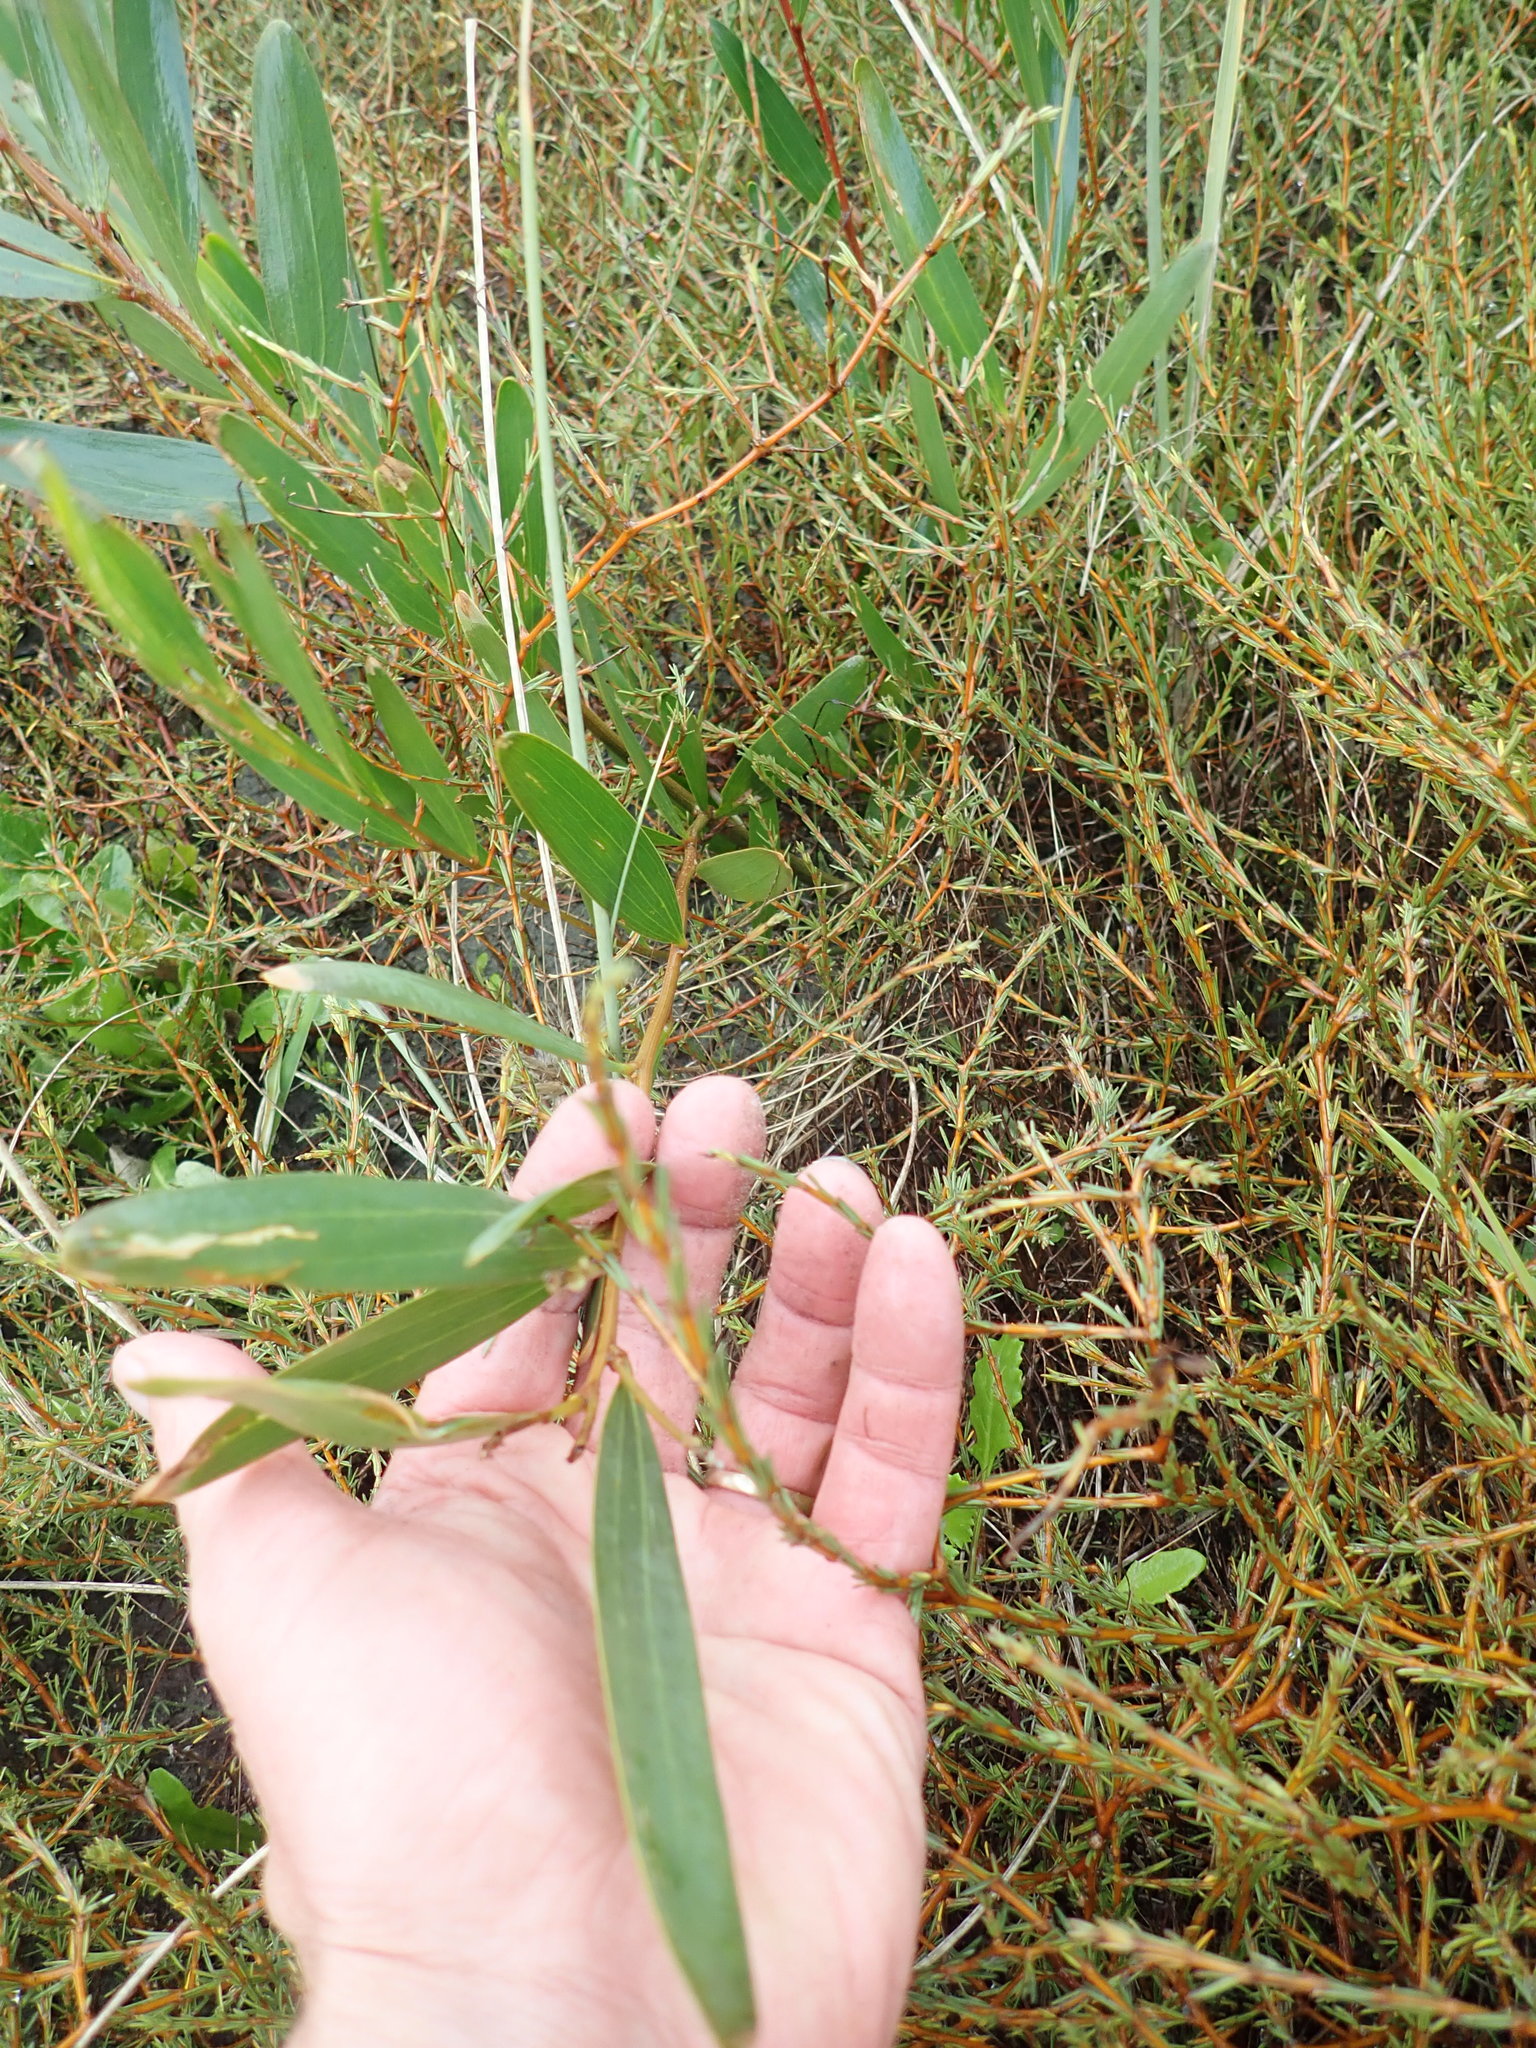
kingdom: Plantae
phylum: Tracheophyta
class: Magnoliopsida
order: Fabales
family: Fabaceae
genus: Acacia
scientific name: Acacia longifolia
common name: Sydney golden wattle
